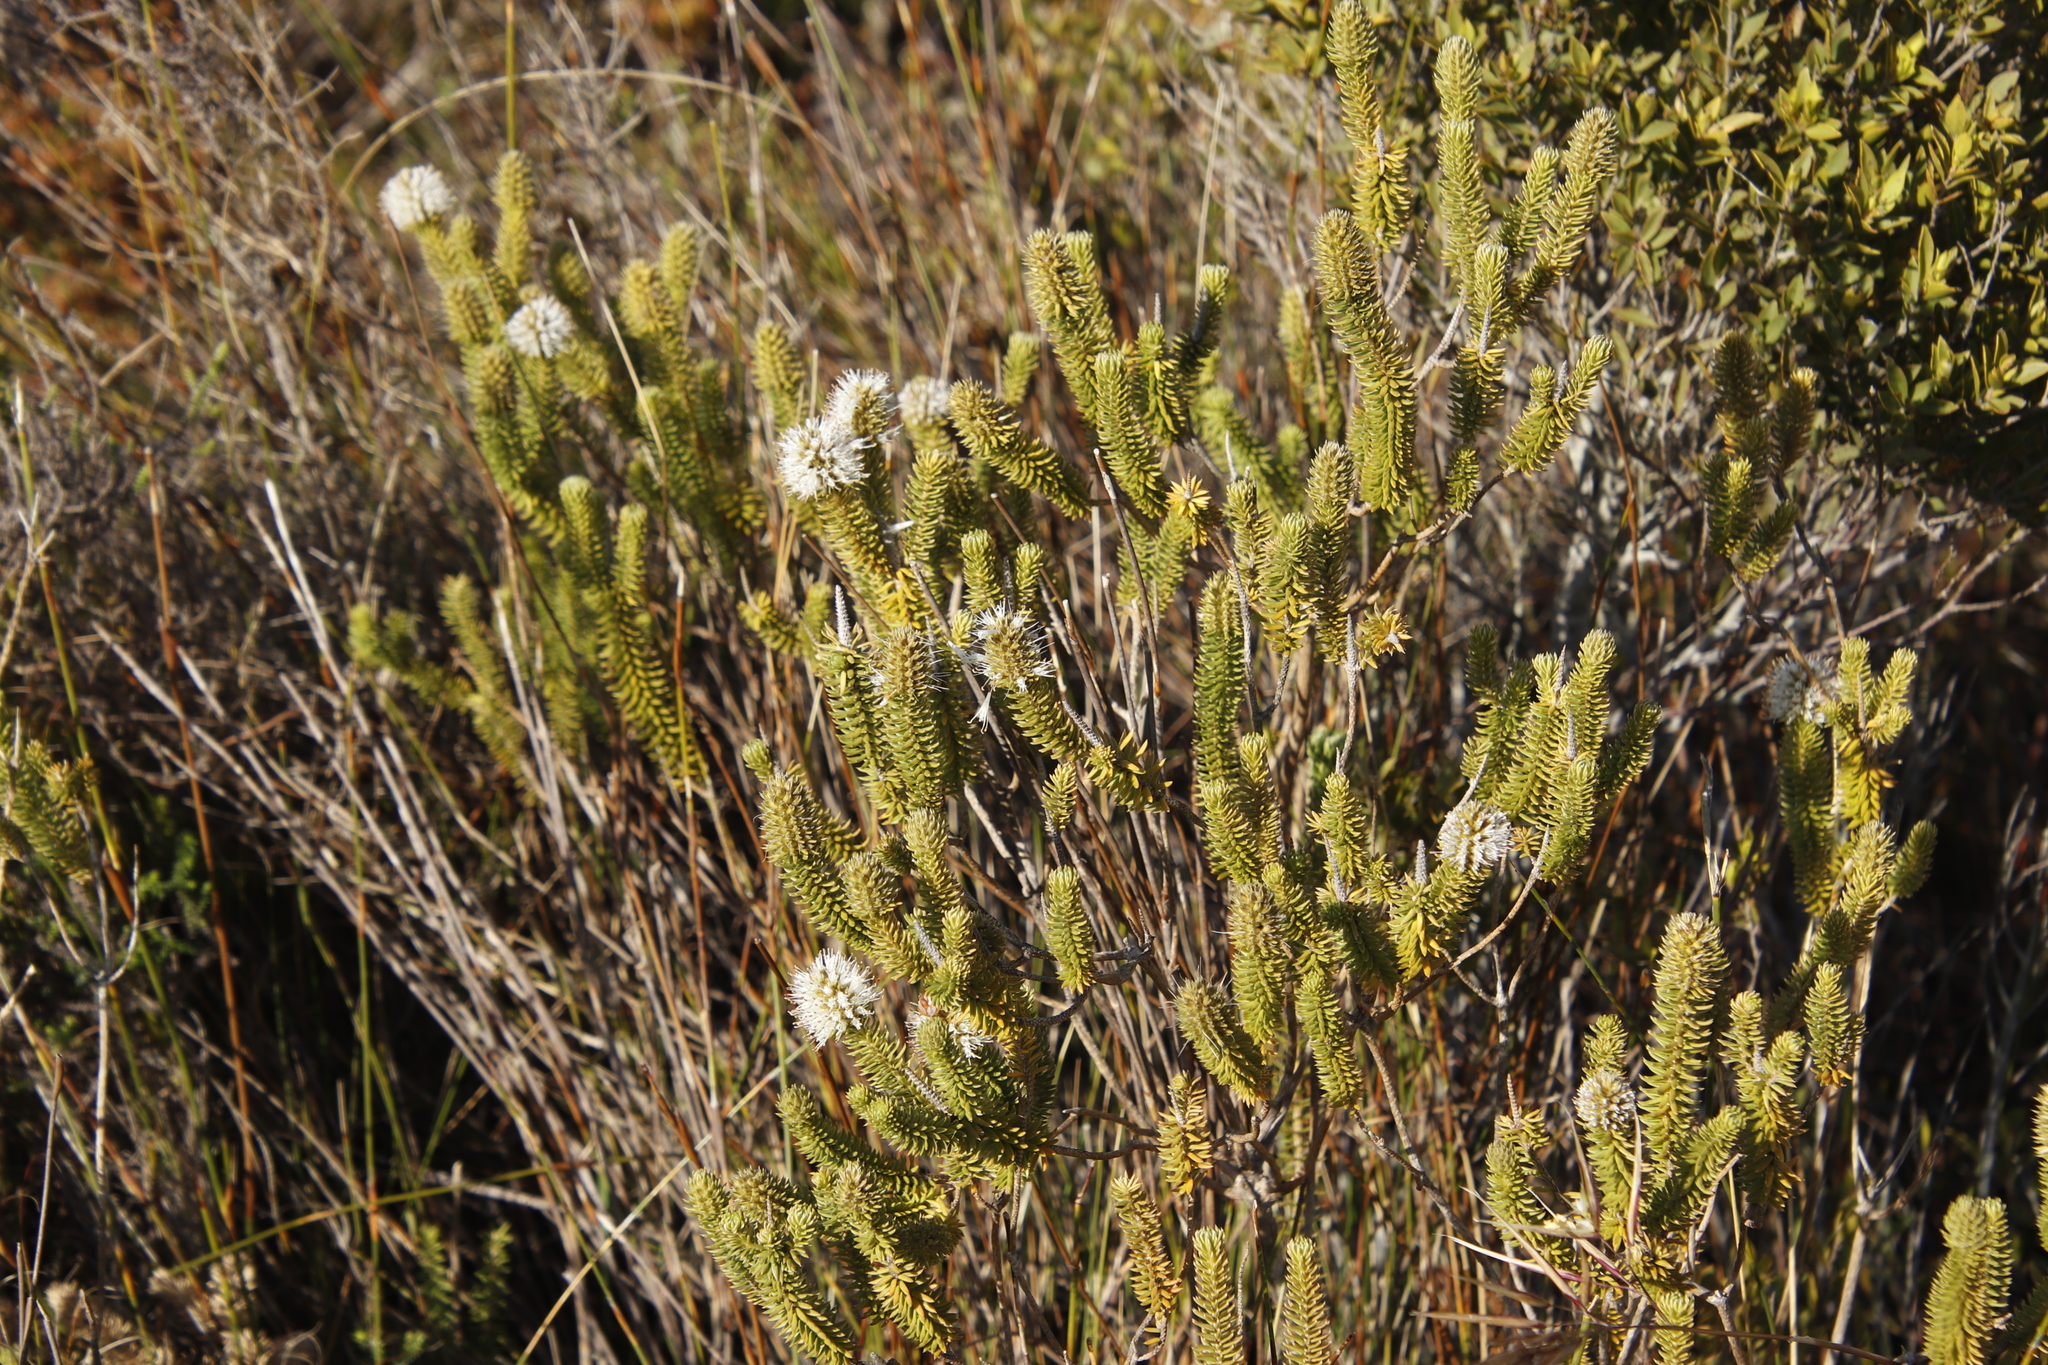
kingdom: Plantae
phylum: Tracheophyta
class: Magnoliopsida
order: Lamiales
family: Stilbaceae
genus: Stilbe
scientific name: Stilbe vestita
